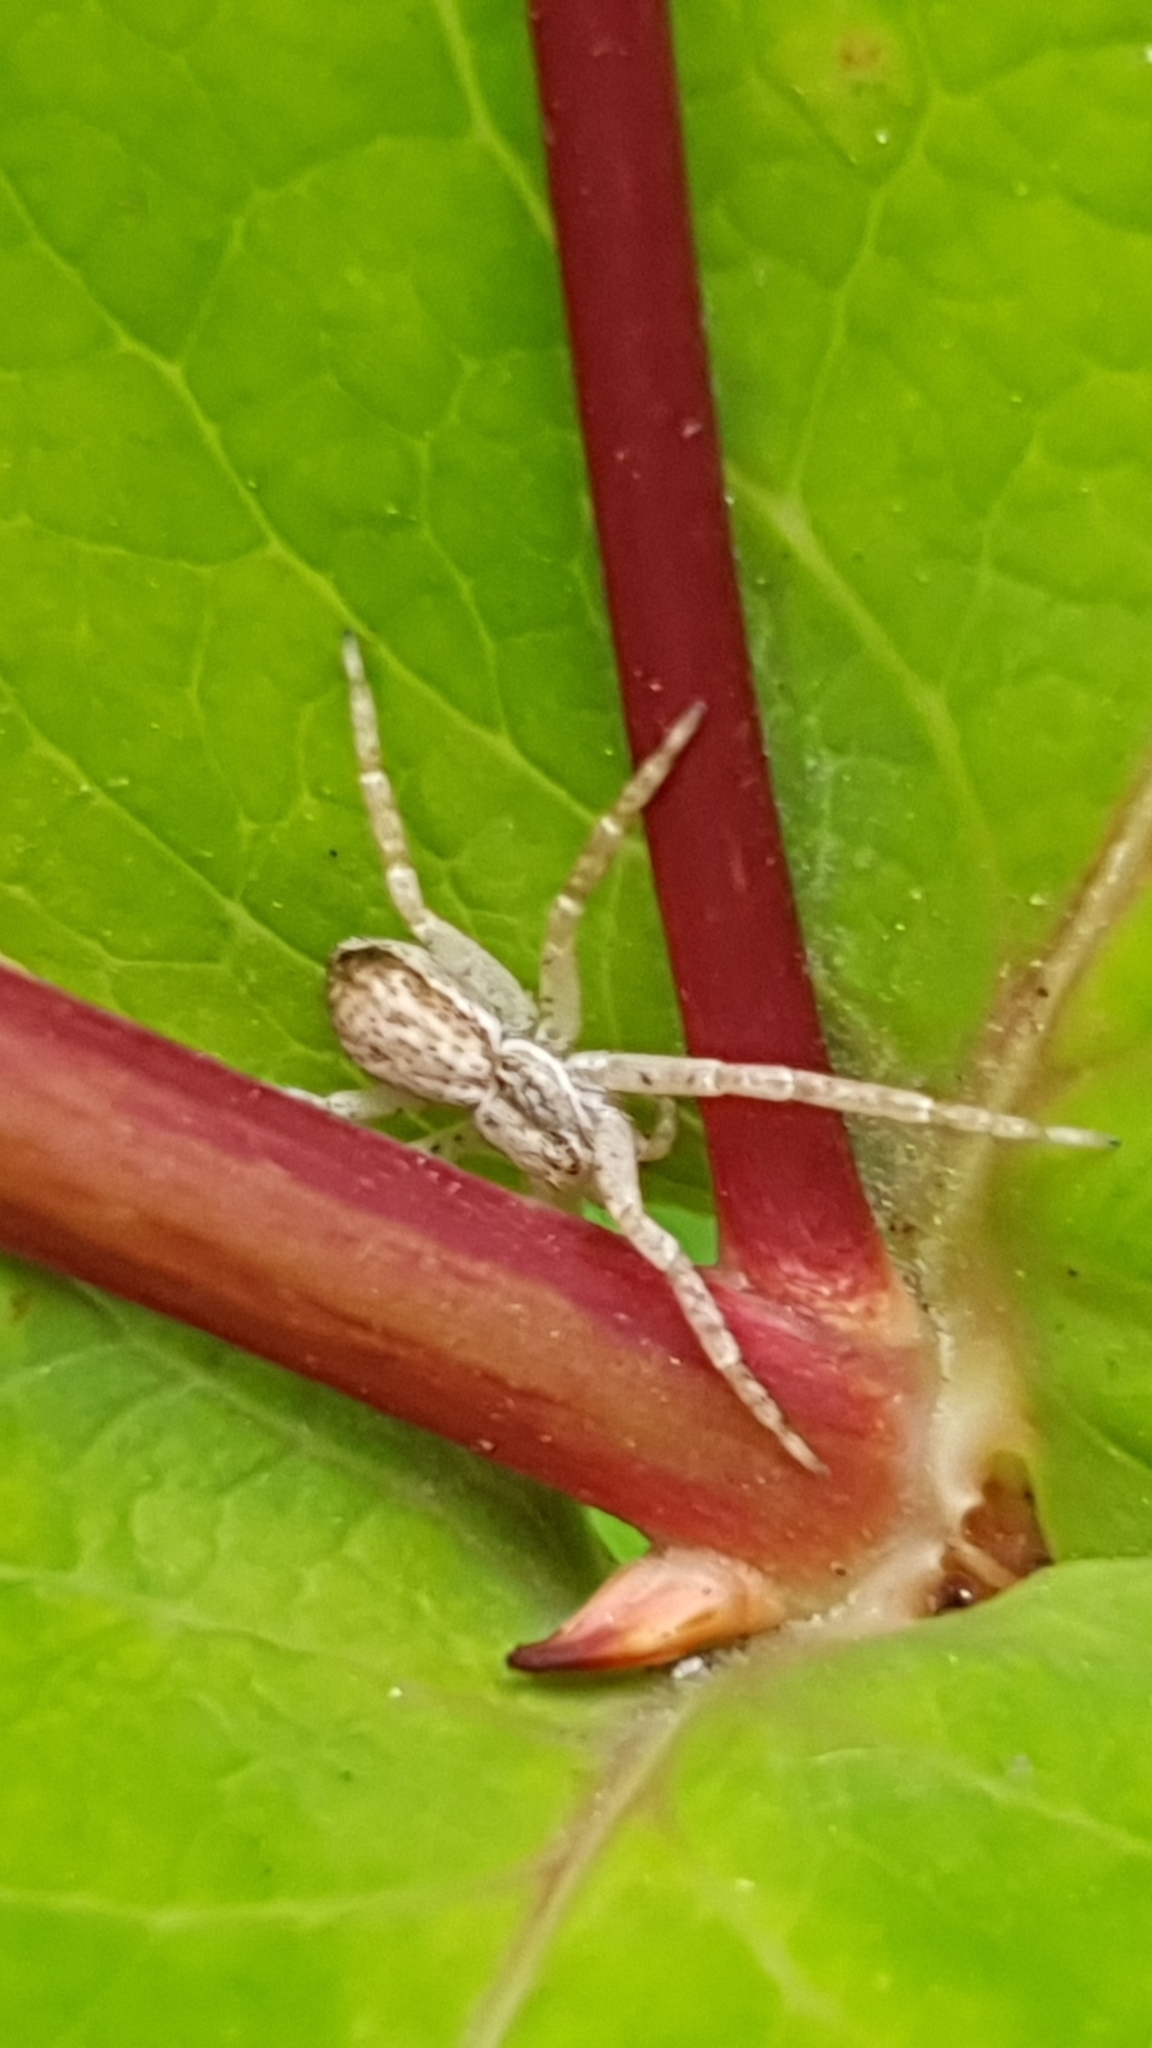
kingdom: Animalia
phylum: Arthropoda
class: Arachnida
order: Araneae
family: Philodromidae
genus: Philodromus
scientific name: Philodromus dispar
